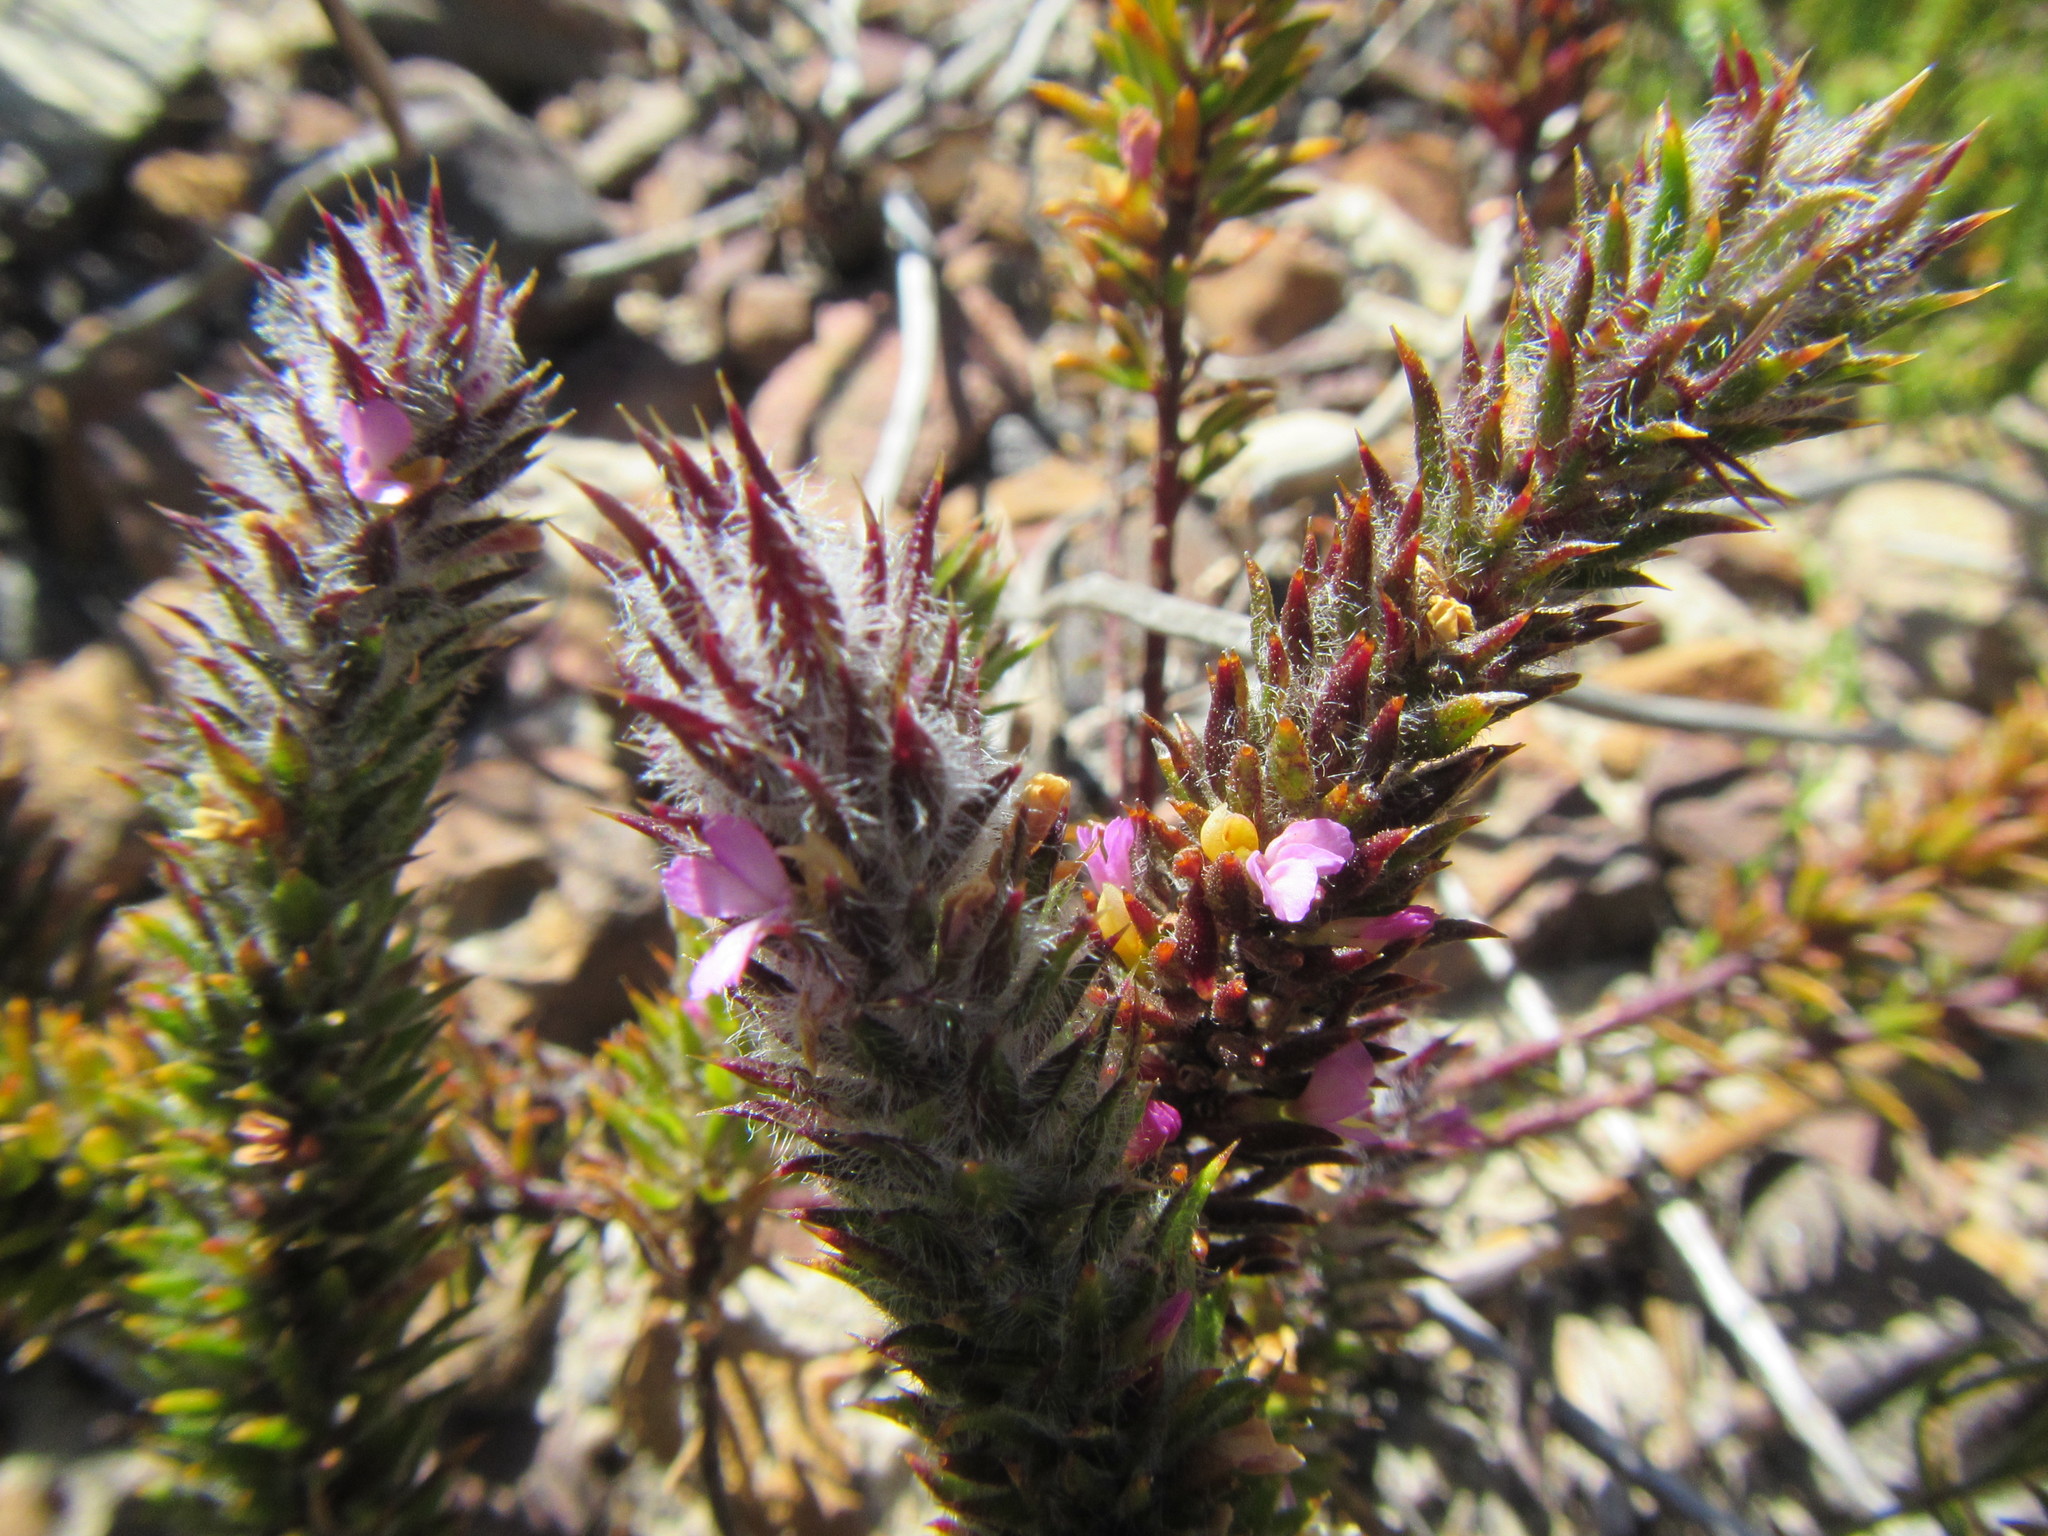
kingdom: Plantae
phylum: Tracheophyta
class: Magnoliopsida
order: Fabales
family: Polygalaceae
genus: Muraltia
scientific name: Muraltia thunbergii
